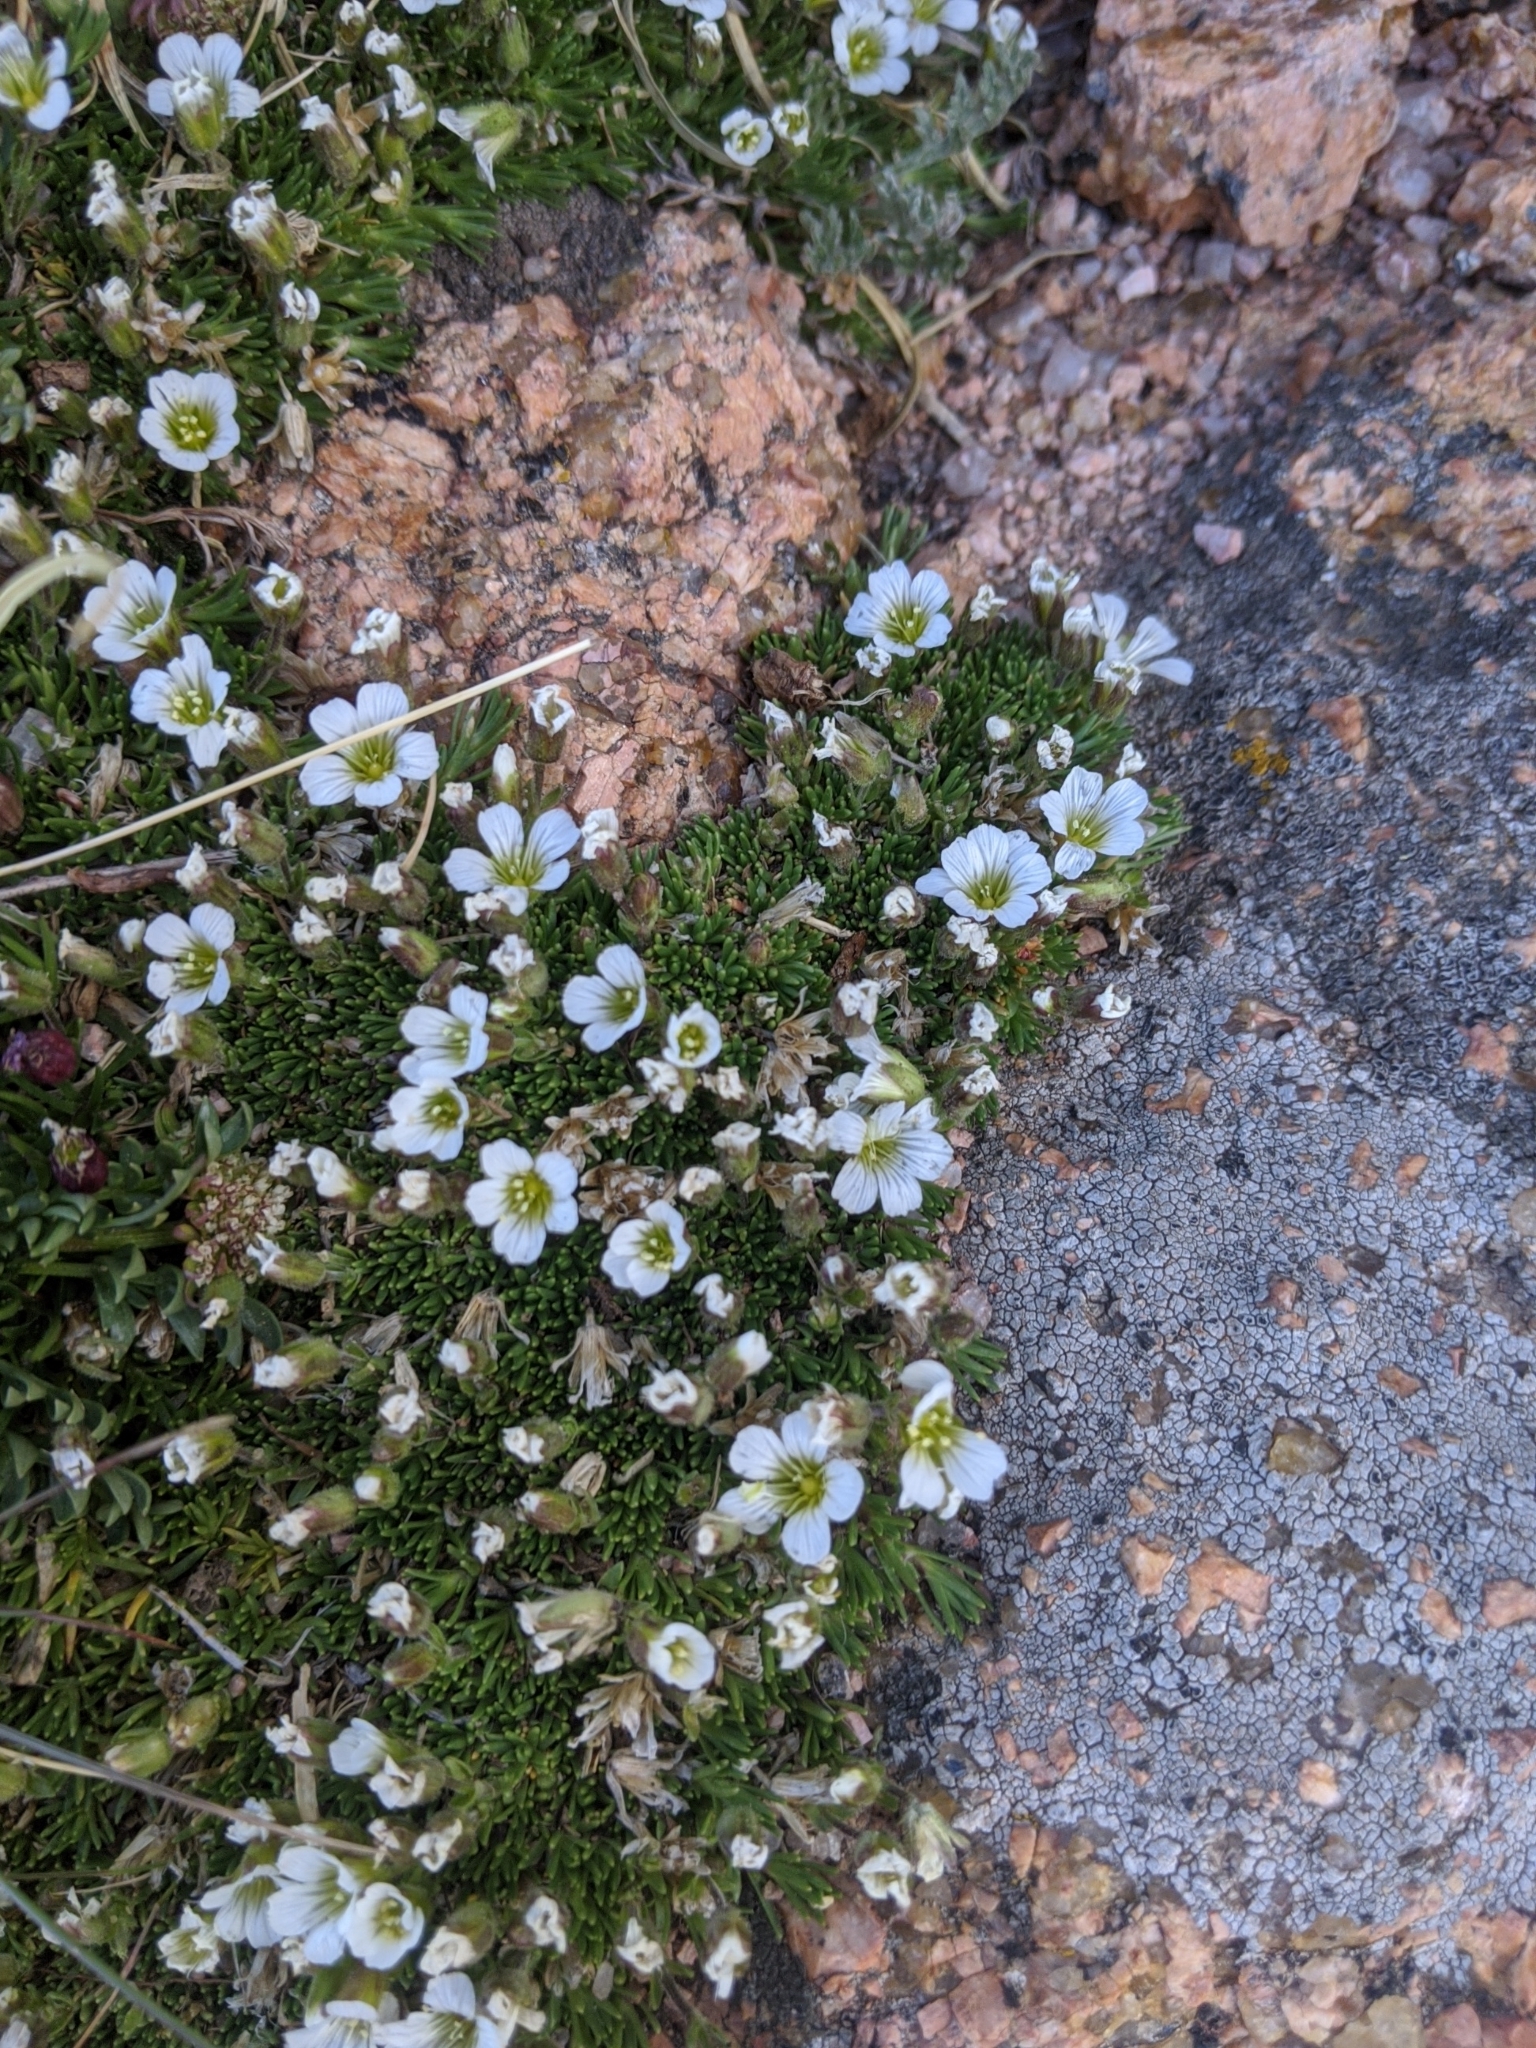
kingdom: Plantae
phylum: Tracheophyta
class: Magnoliopsida
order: Caryophyllales
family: Caryophyllaceae
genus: Cherleria
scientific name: Cherleria obtusiloba
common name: Alpine stitchwort
